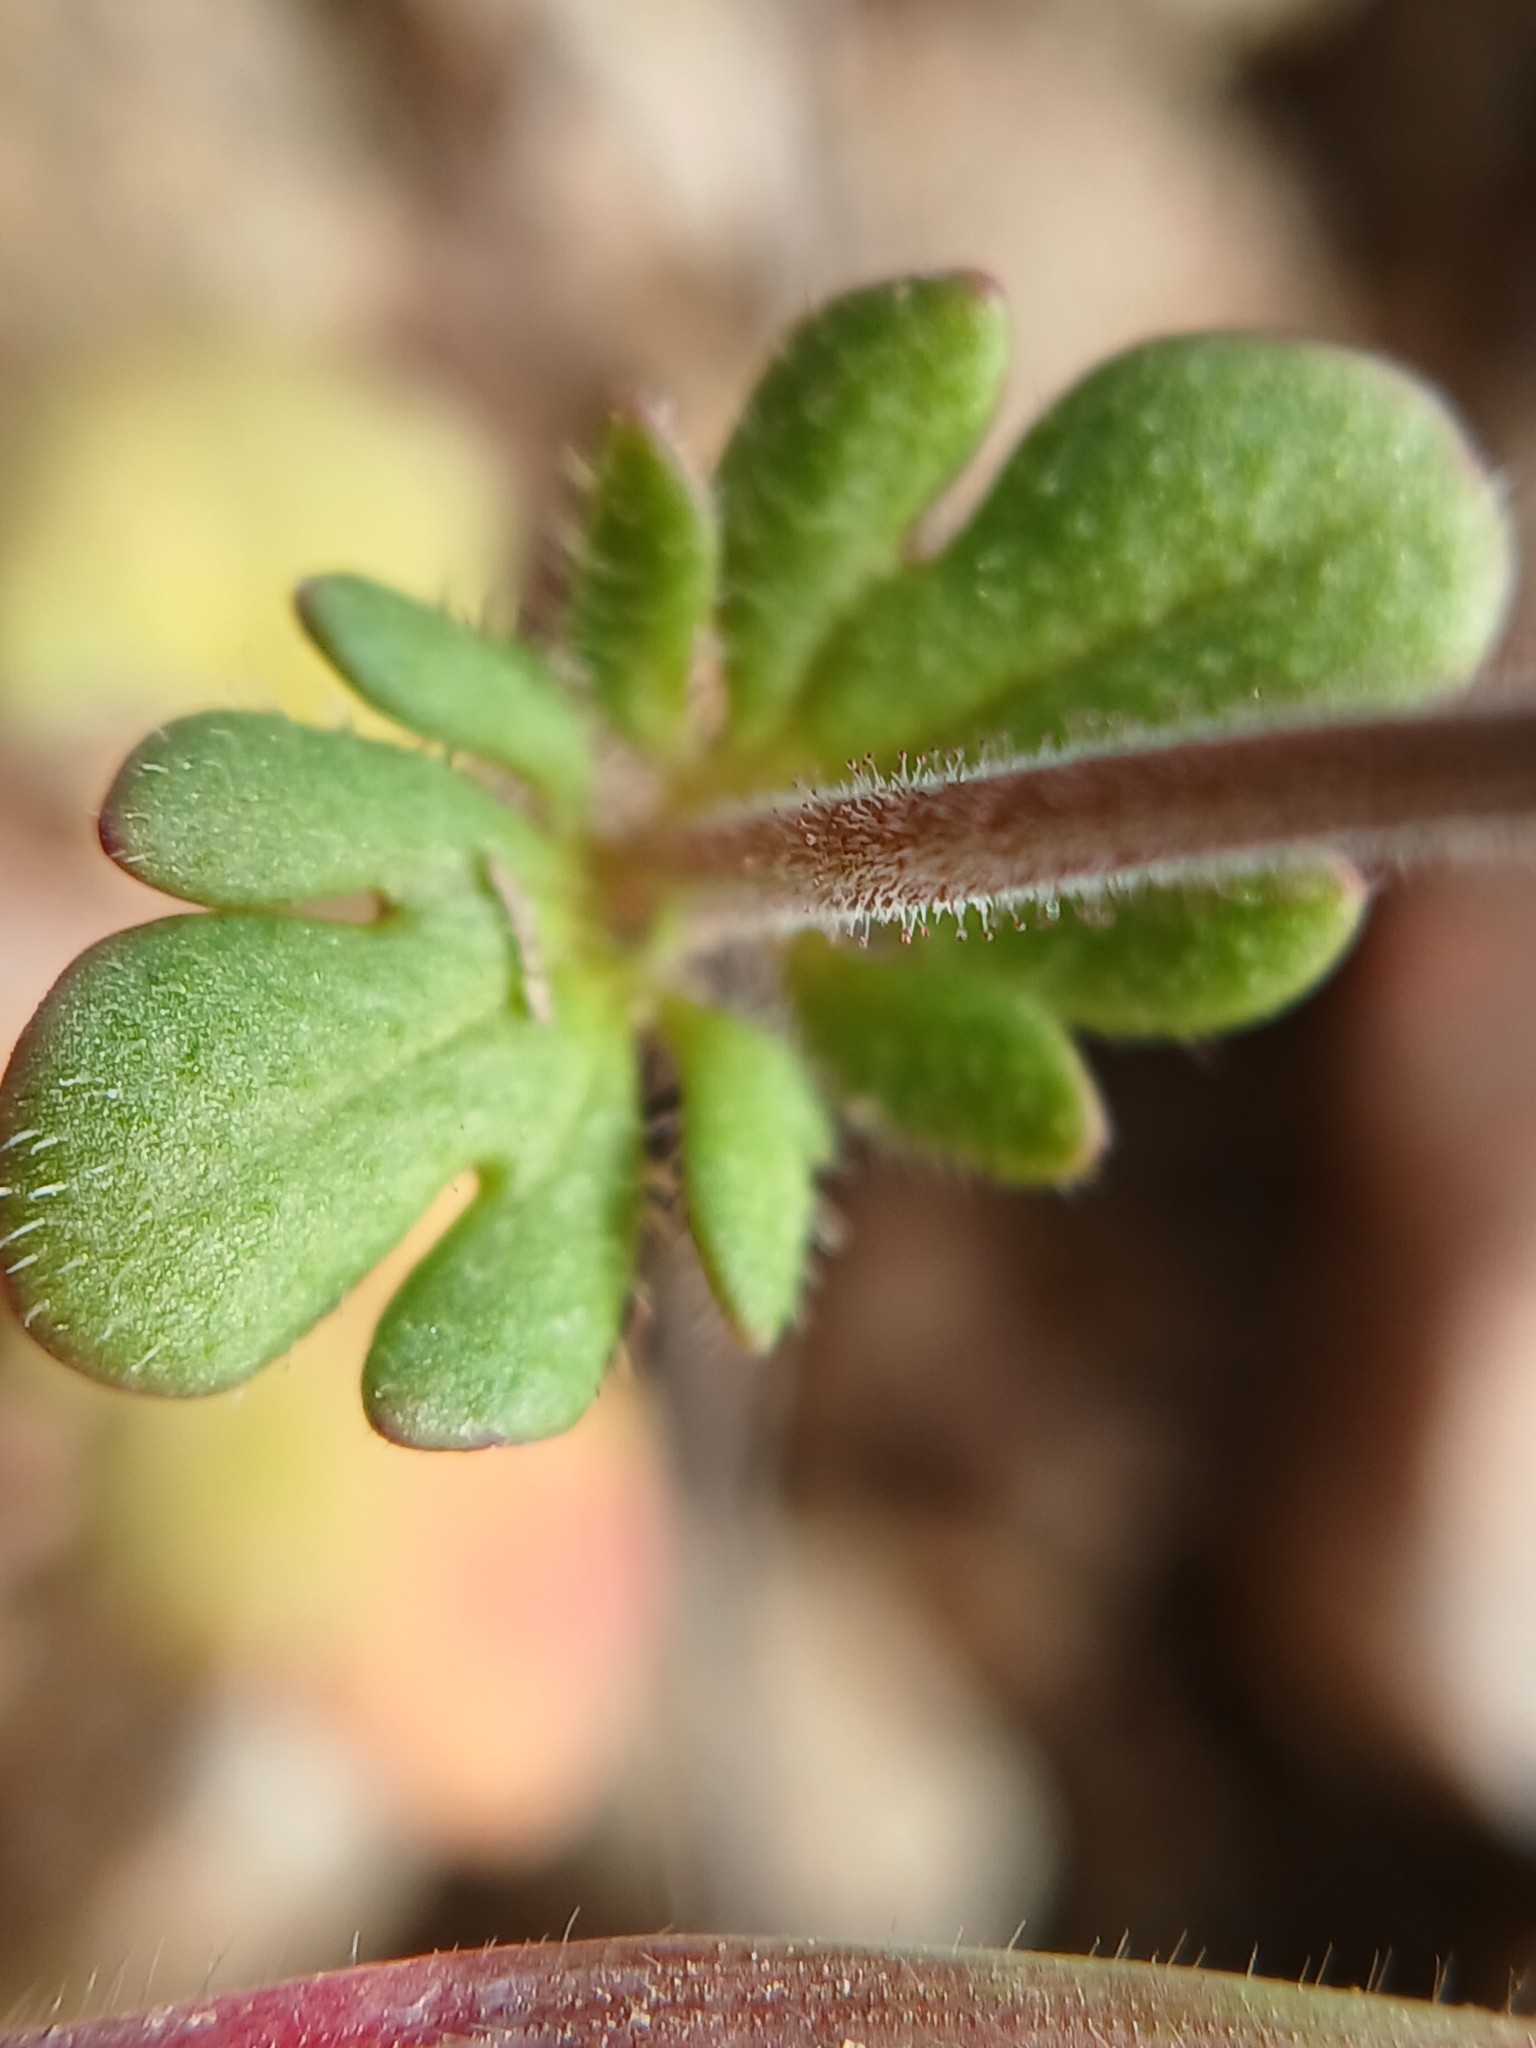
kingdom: Plantae
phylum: Tracheophyta
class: Magnoliopsida
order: Lamiales
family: Plantaginaceae
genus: Veronica
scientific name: Veronica triphyllos
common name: Fingered speedwell
